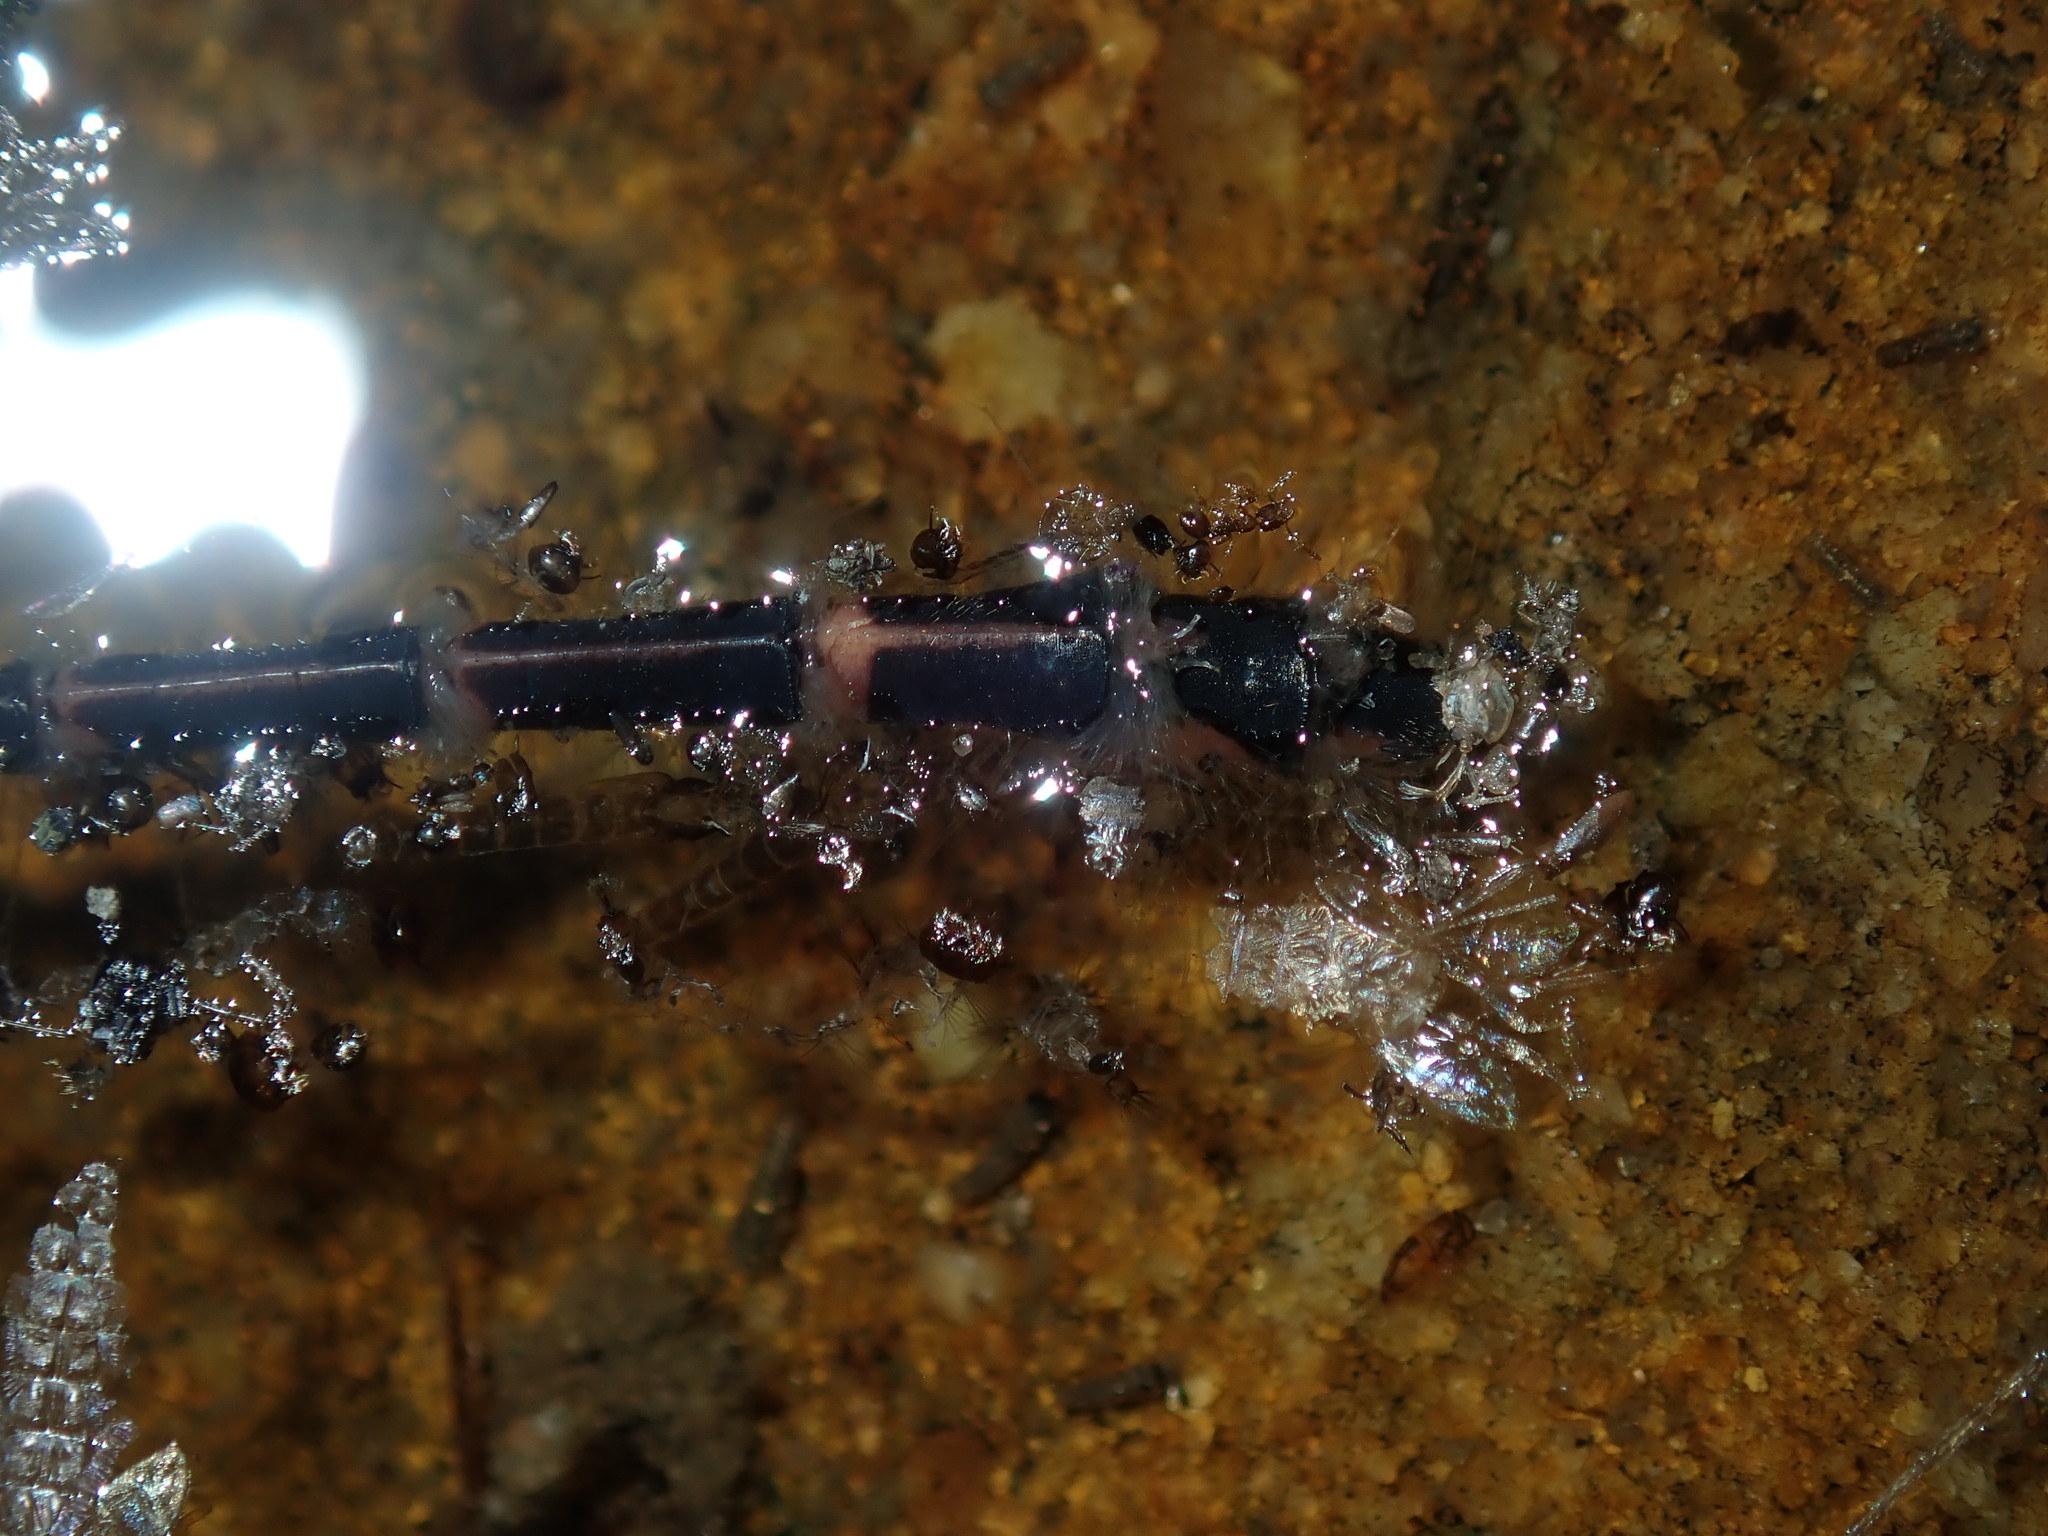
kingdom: Animalia
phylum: Arthropoda
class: Insecta
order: Odonata
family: Gomphidae
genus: Austrogomphus
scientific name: Austrogomphus ochraceus
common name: Jade hunter
